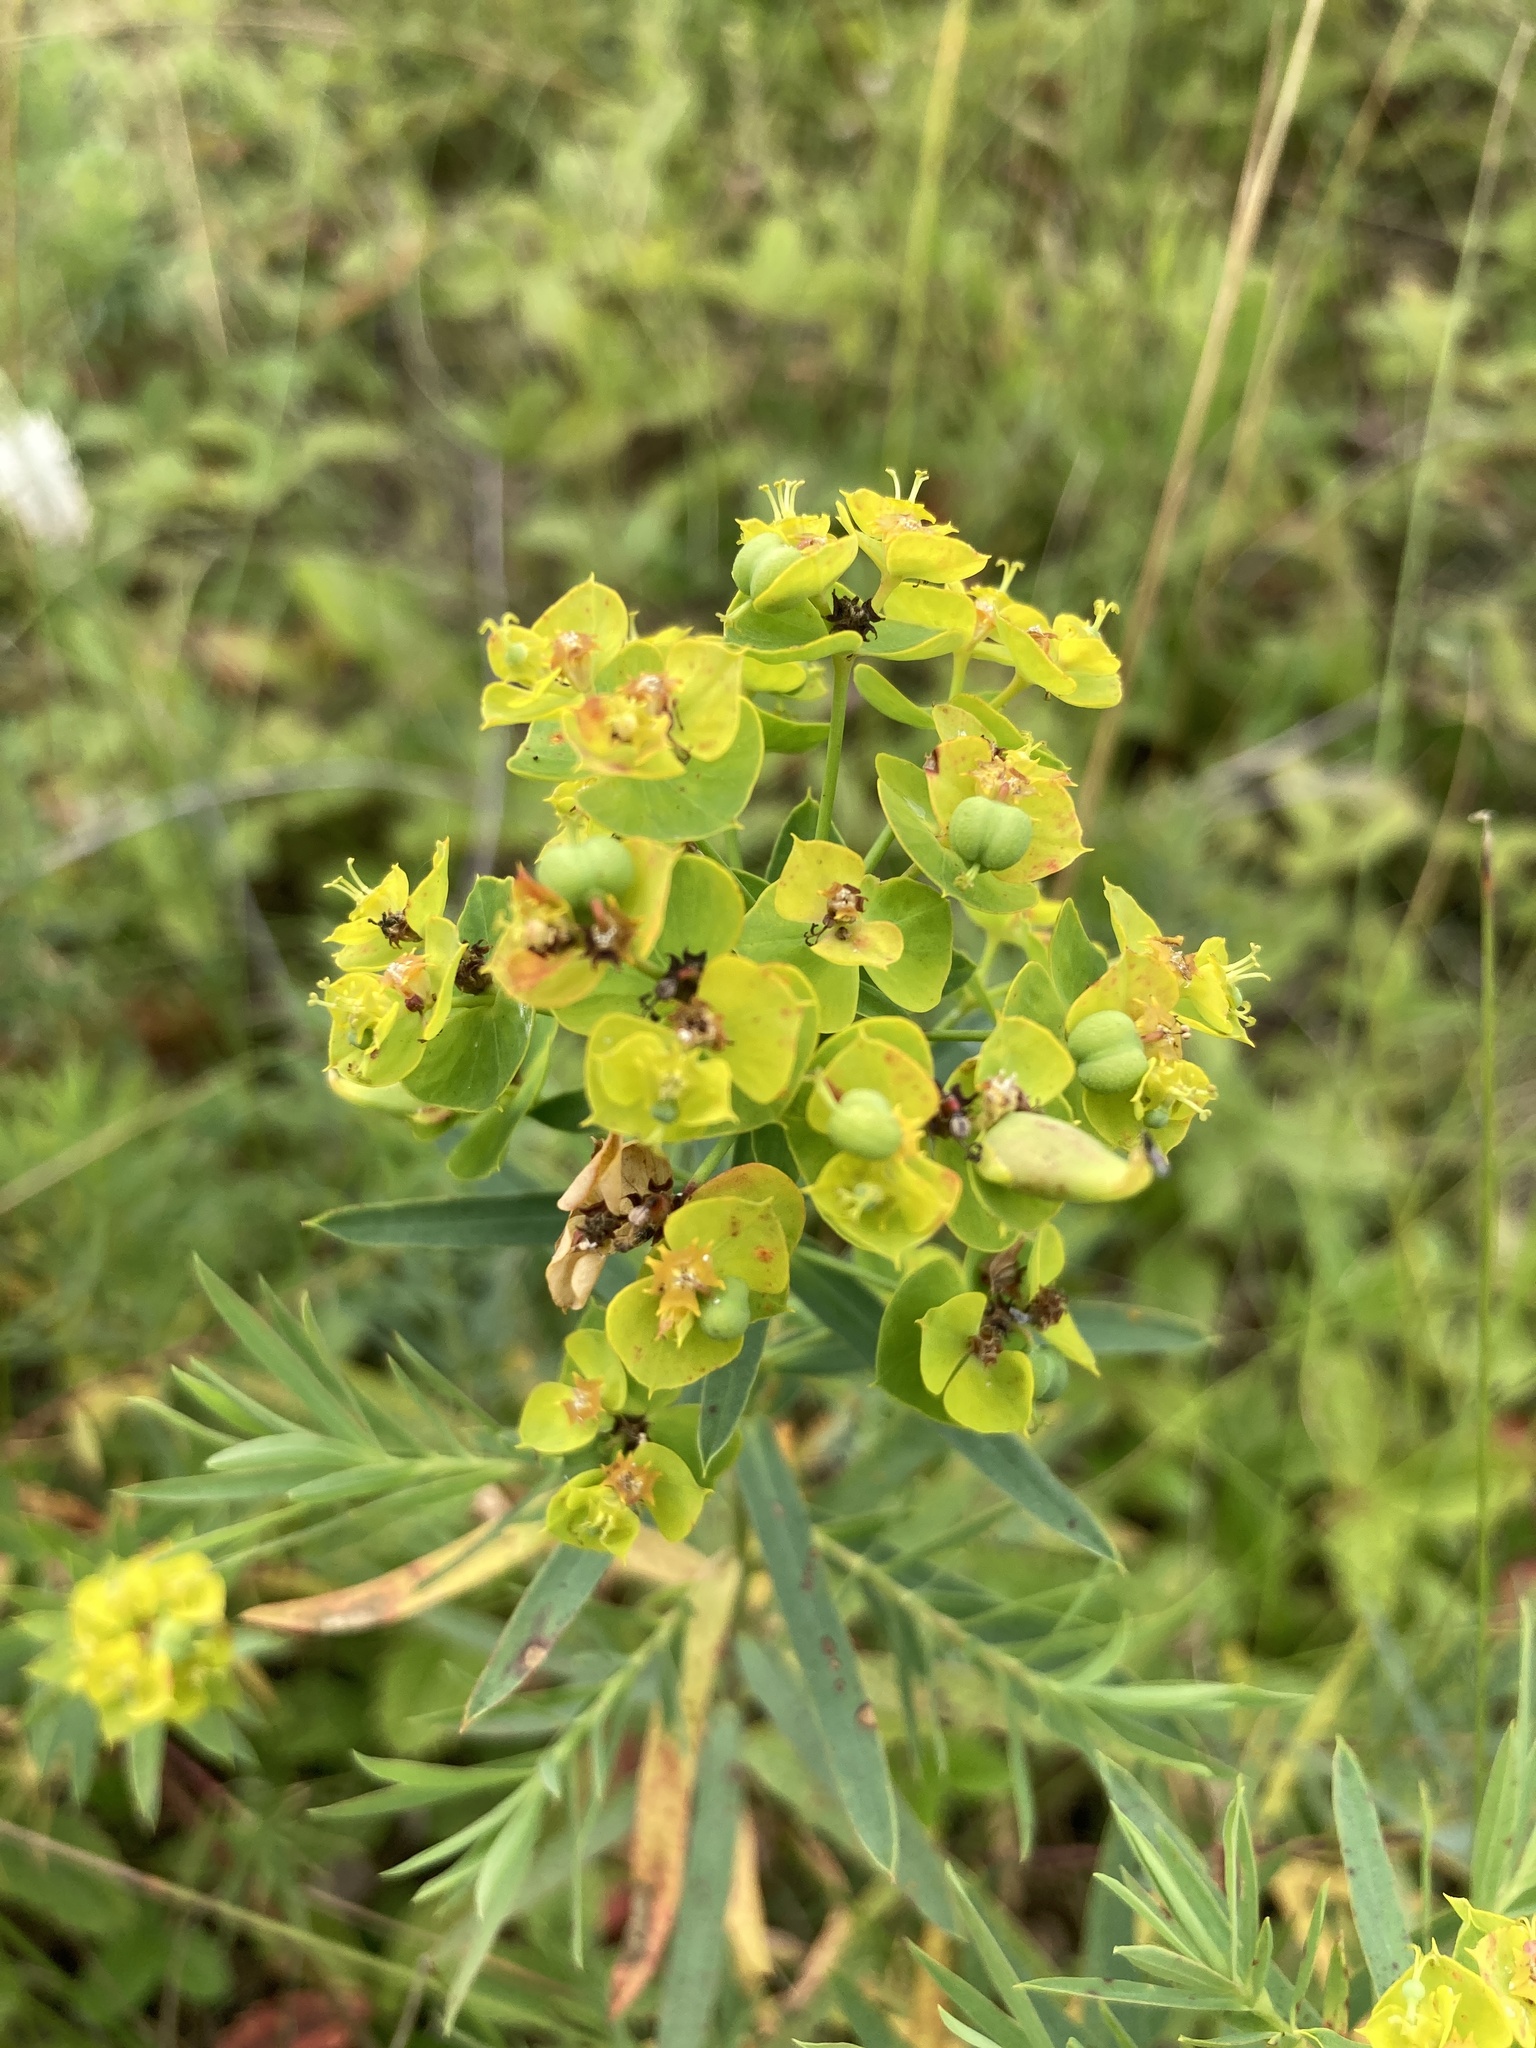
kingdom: Plantae
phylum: Tracheophyta
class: Magnoliopsida
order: Malpighiales
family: Euphorbiaceae
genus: Euphorbia
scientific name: Euphorbia virgata
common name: Leafy spurge
